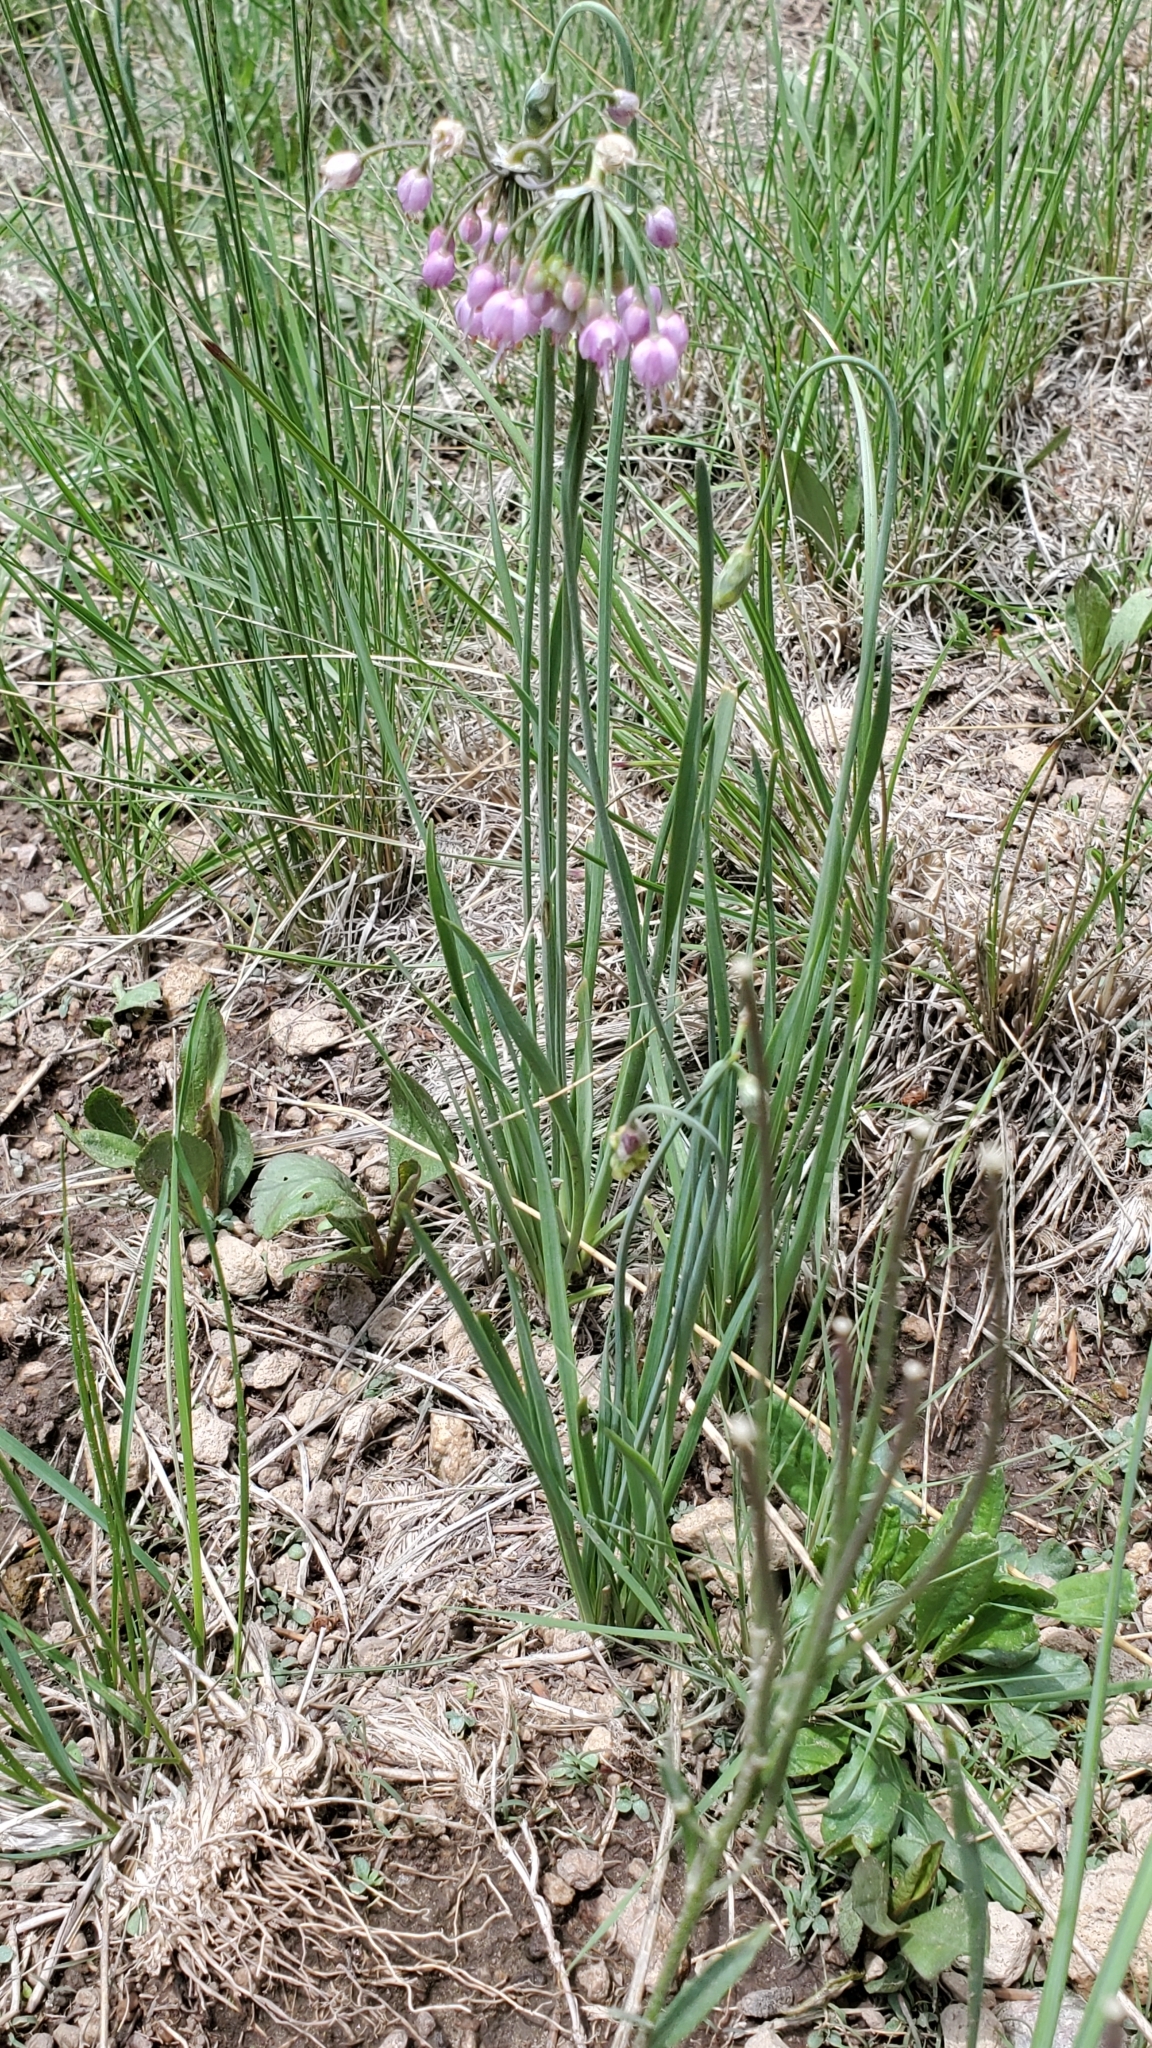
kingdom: Plantae
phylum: Tracheophyta
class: Liliopsida
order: Asparagales
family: Amaryllidaceae
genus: Allium
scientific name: Allium cernuum
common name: Nodding onion
